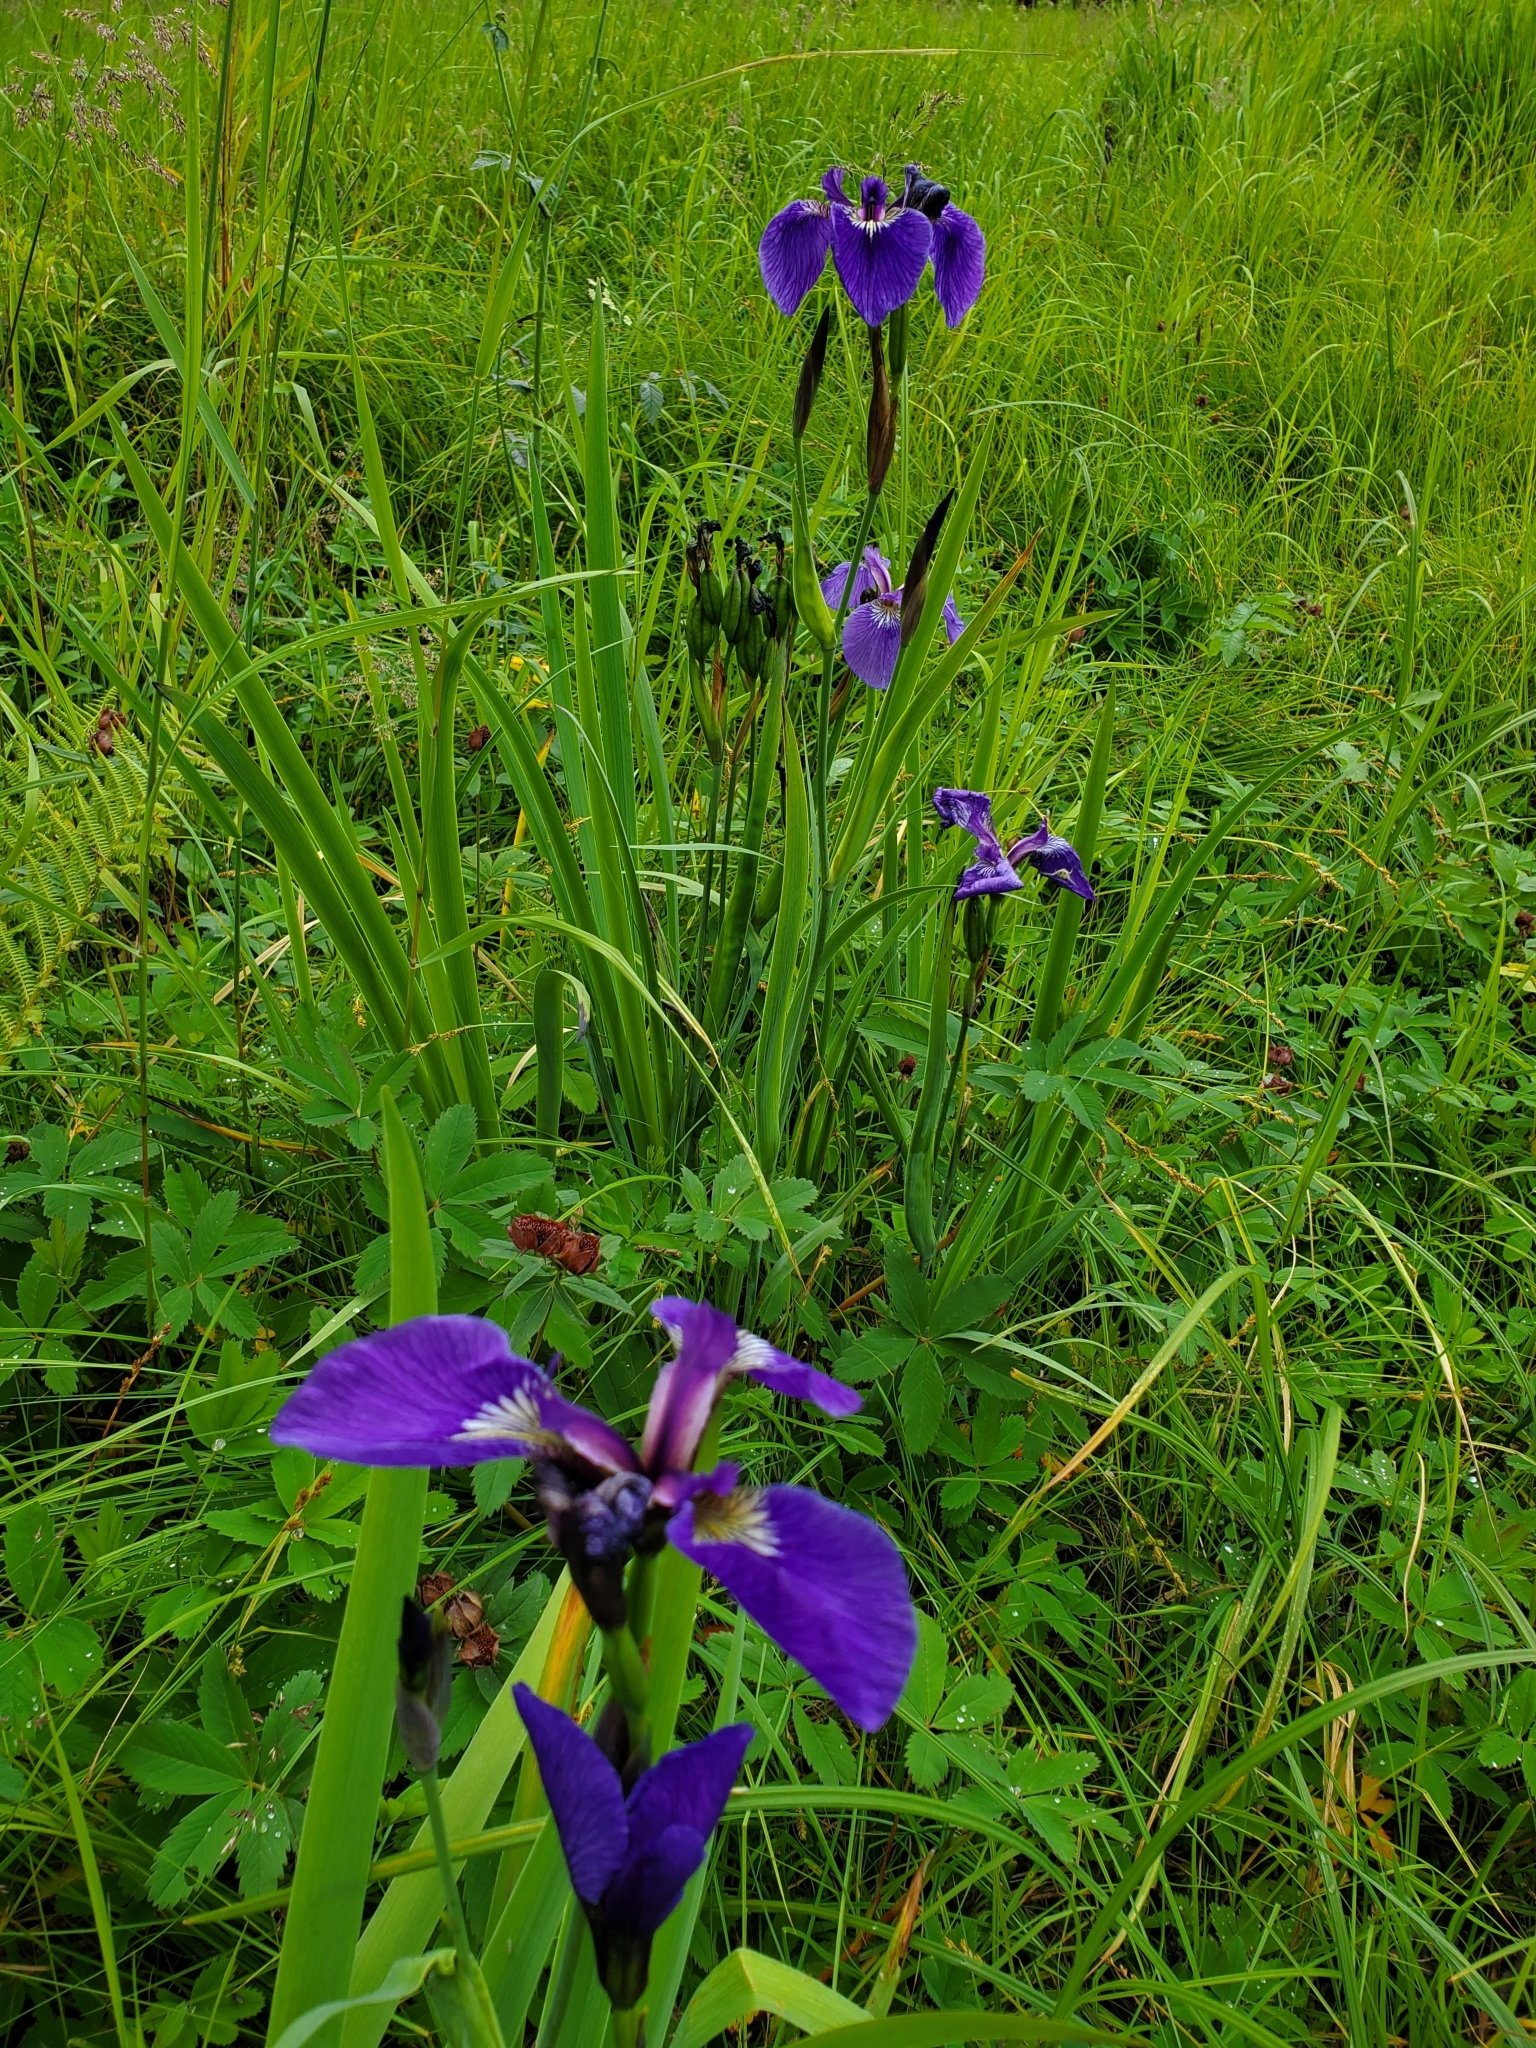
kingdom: Plantae
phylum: Tracheophyta
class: Liliopsida
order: Asparagales
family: Iridaceae
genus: Iris
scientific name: Iris setosa
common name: Arctic blue flag
